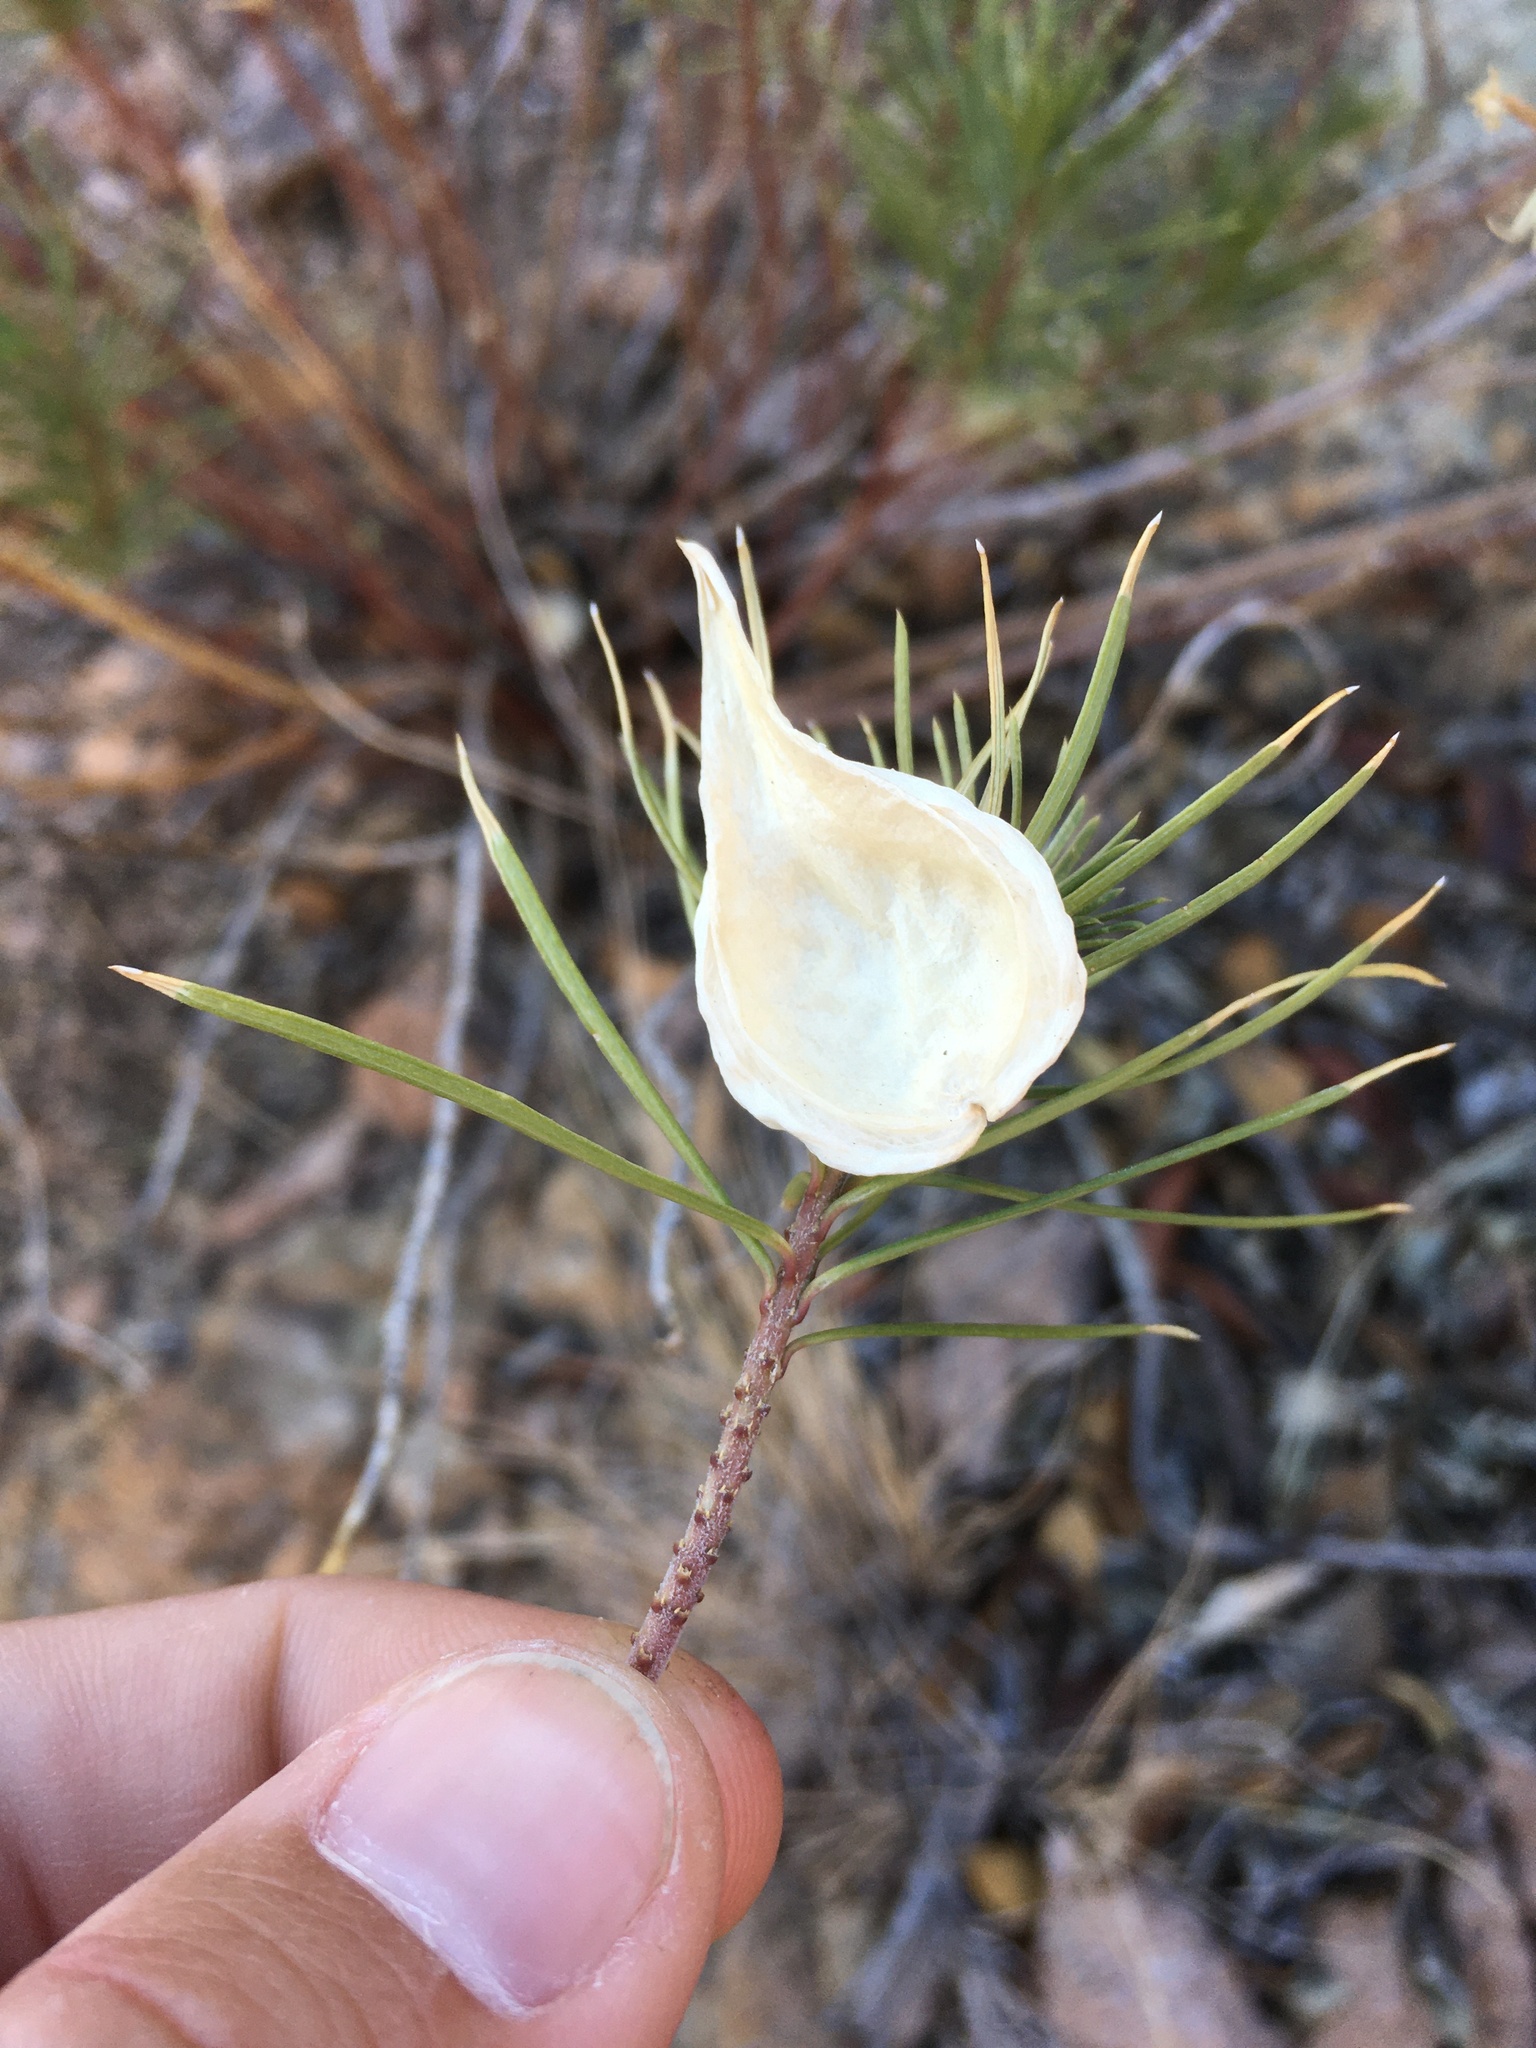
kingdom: Plantae
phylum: Tracheophyta
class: Magnoliopsida
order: Gentianales
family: Apocynaceae
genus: Asclepias
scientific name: Asclepias linaria
